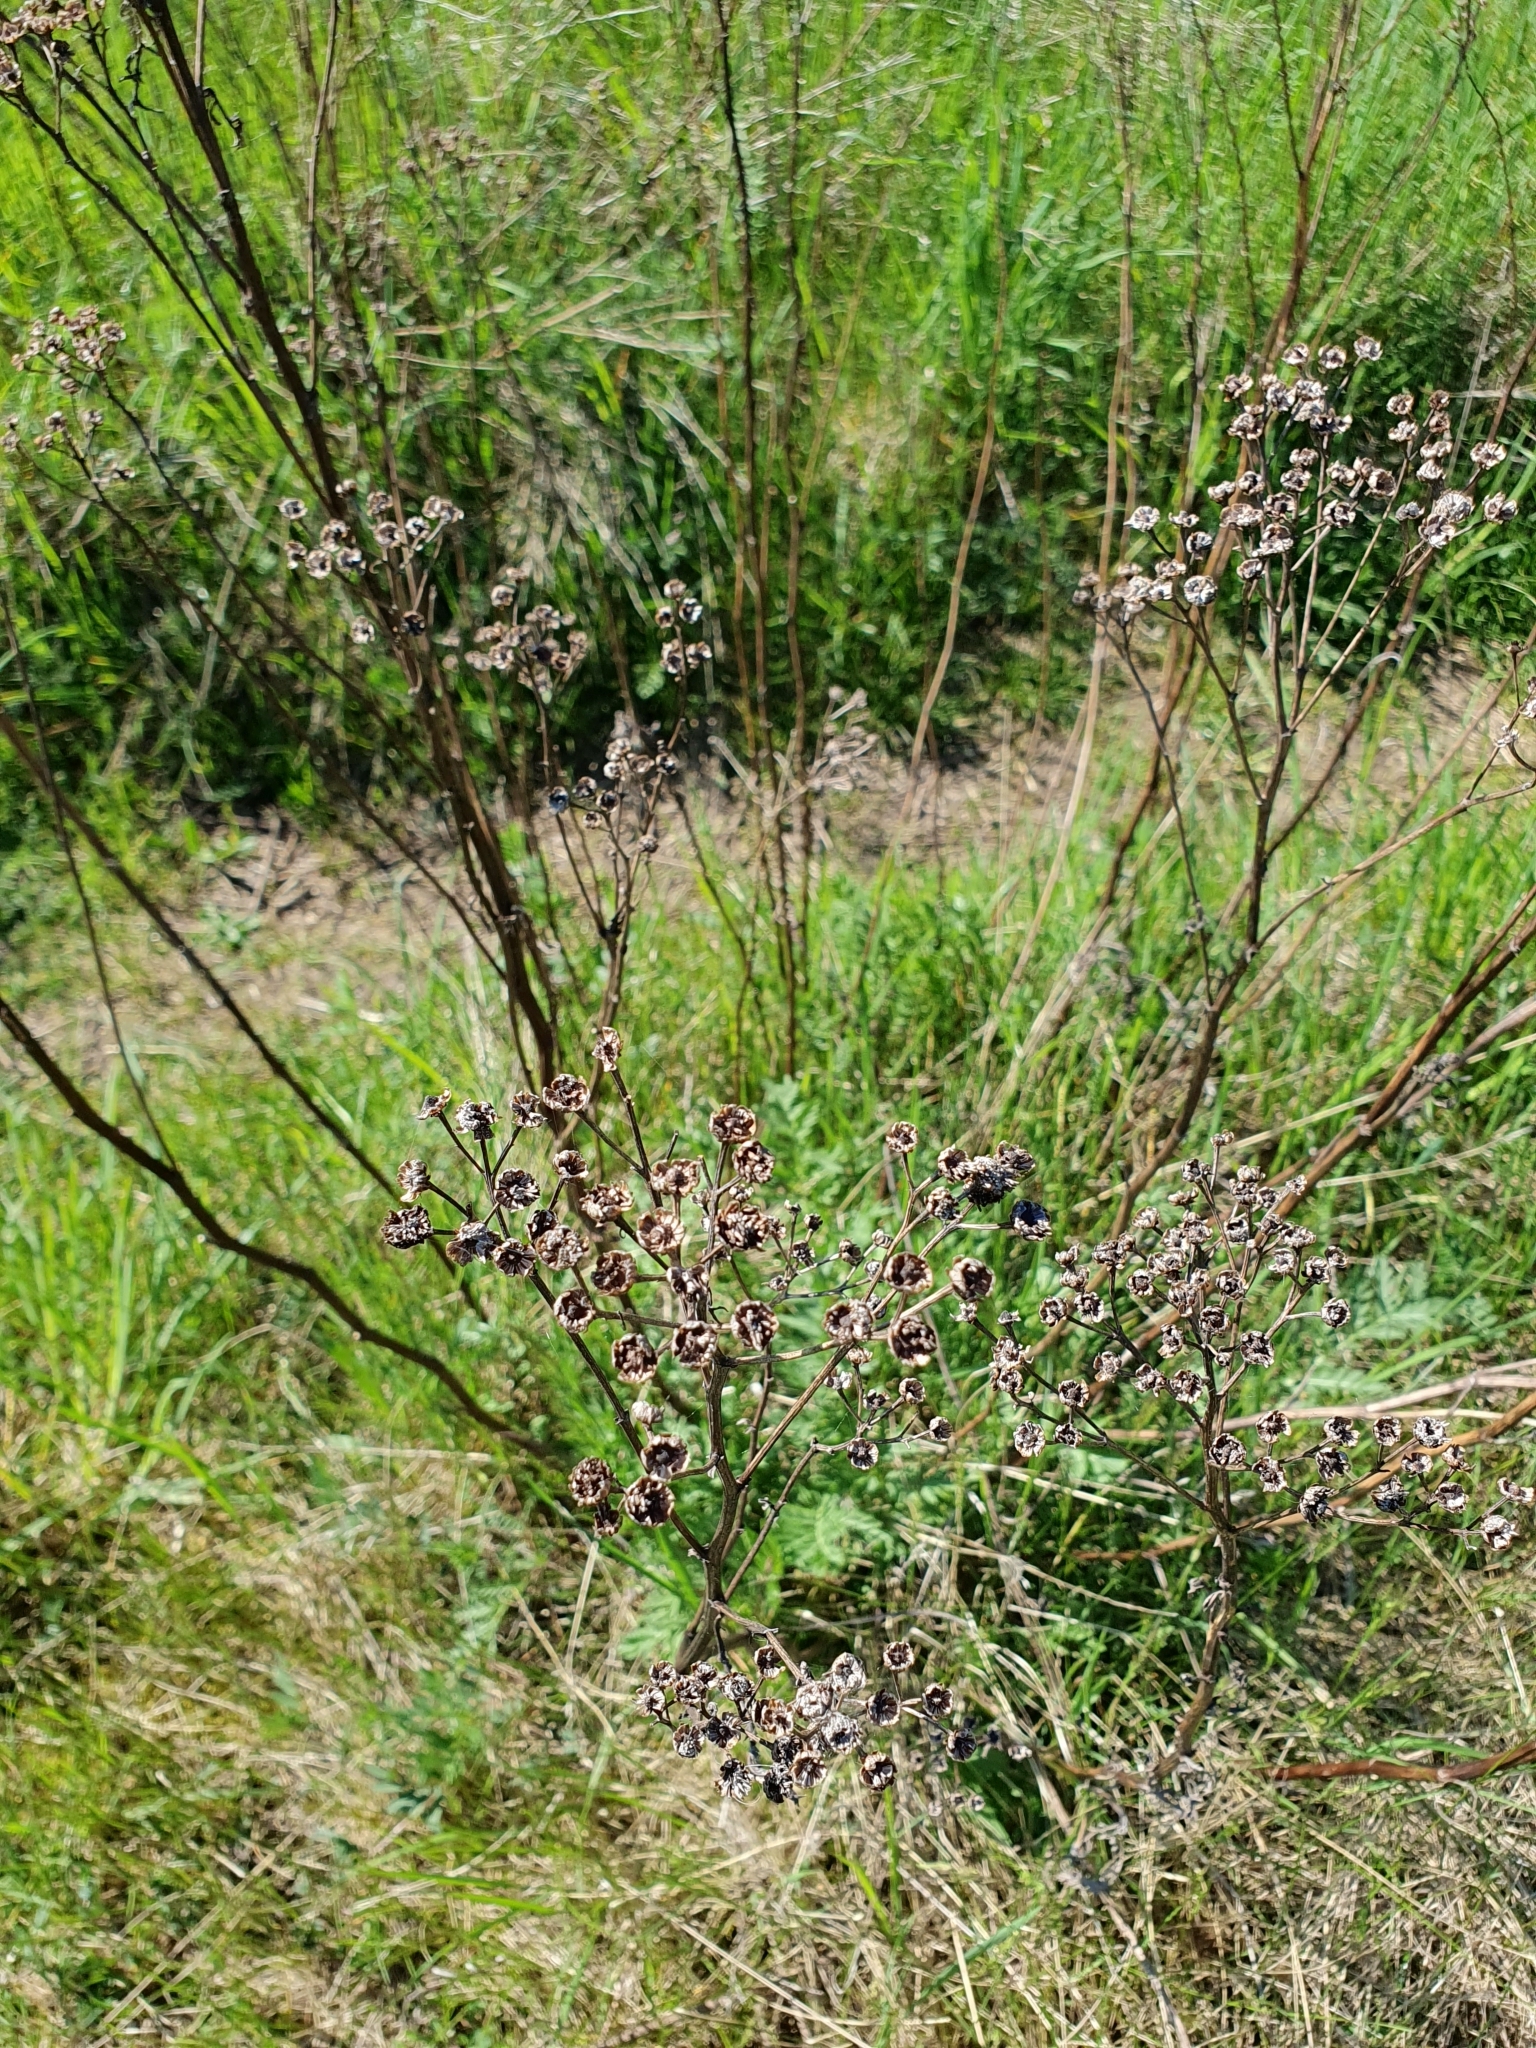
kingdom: Plantae
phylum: Tracheophyta
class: Magnoliopsida
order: Asterales
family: Asteraceae
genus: Tanacetum
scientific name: Tanacetum vulgare
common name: Common tansy
